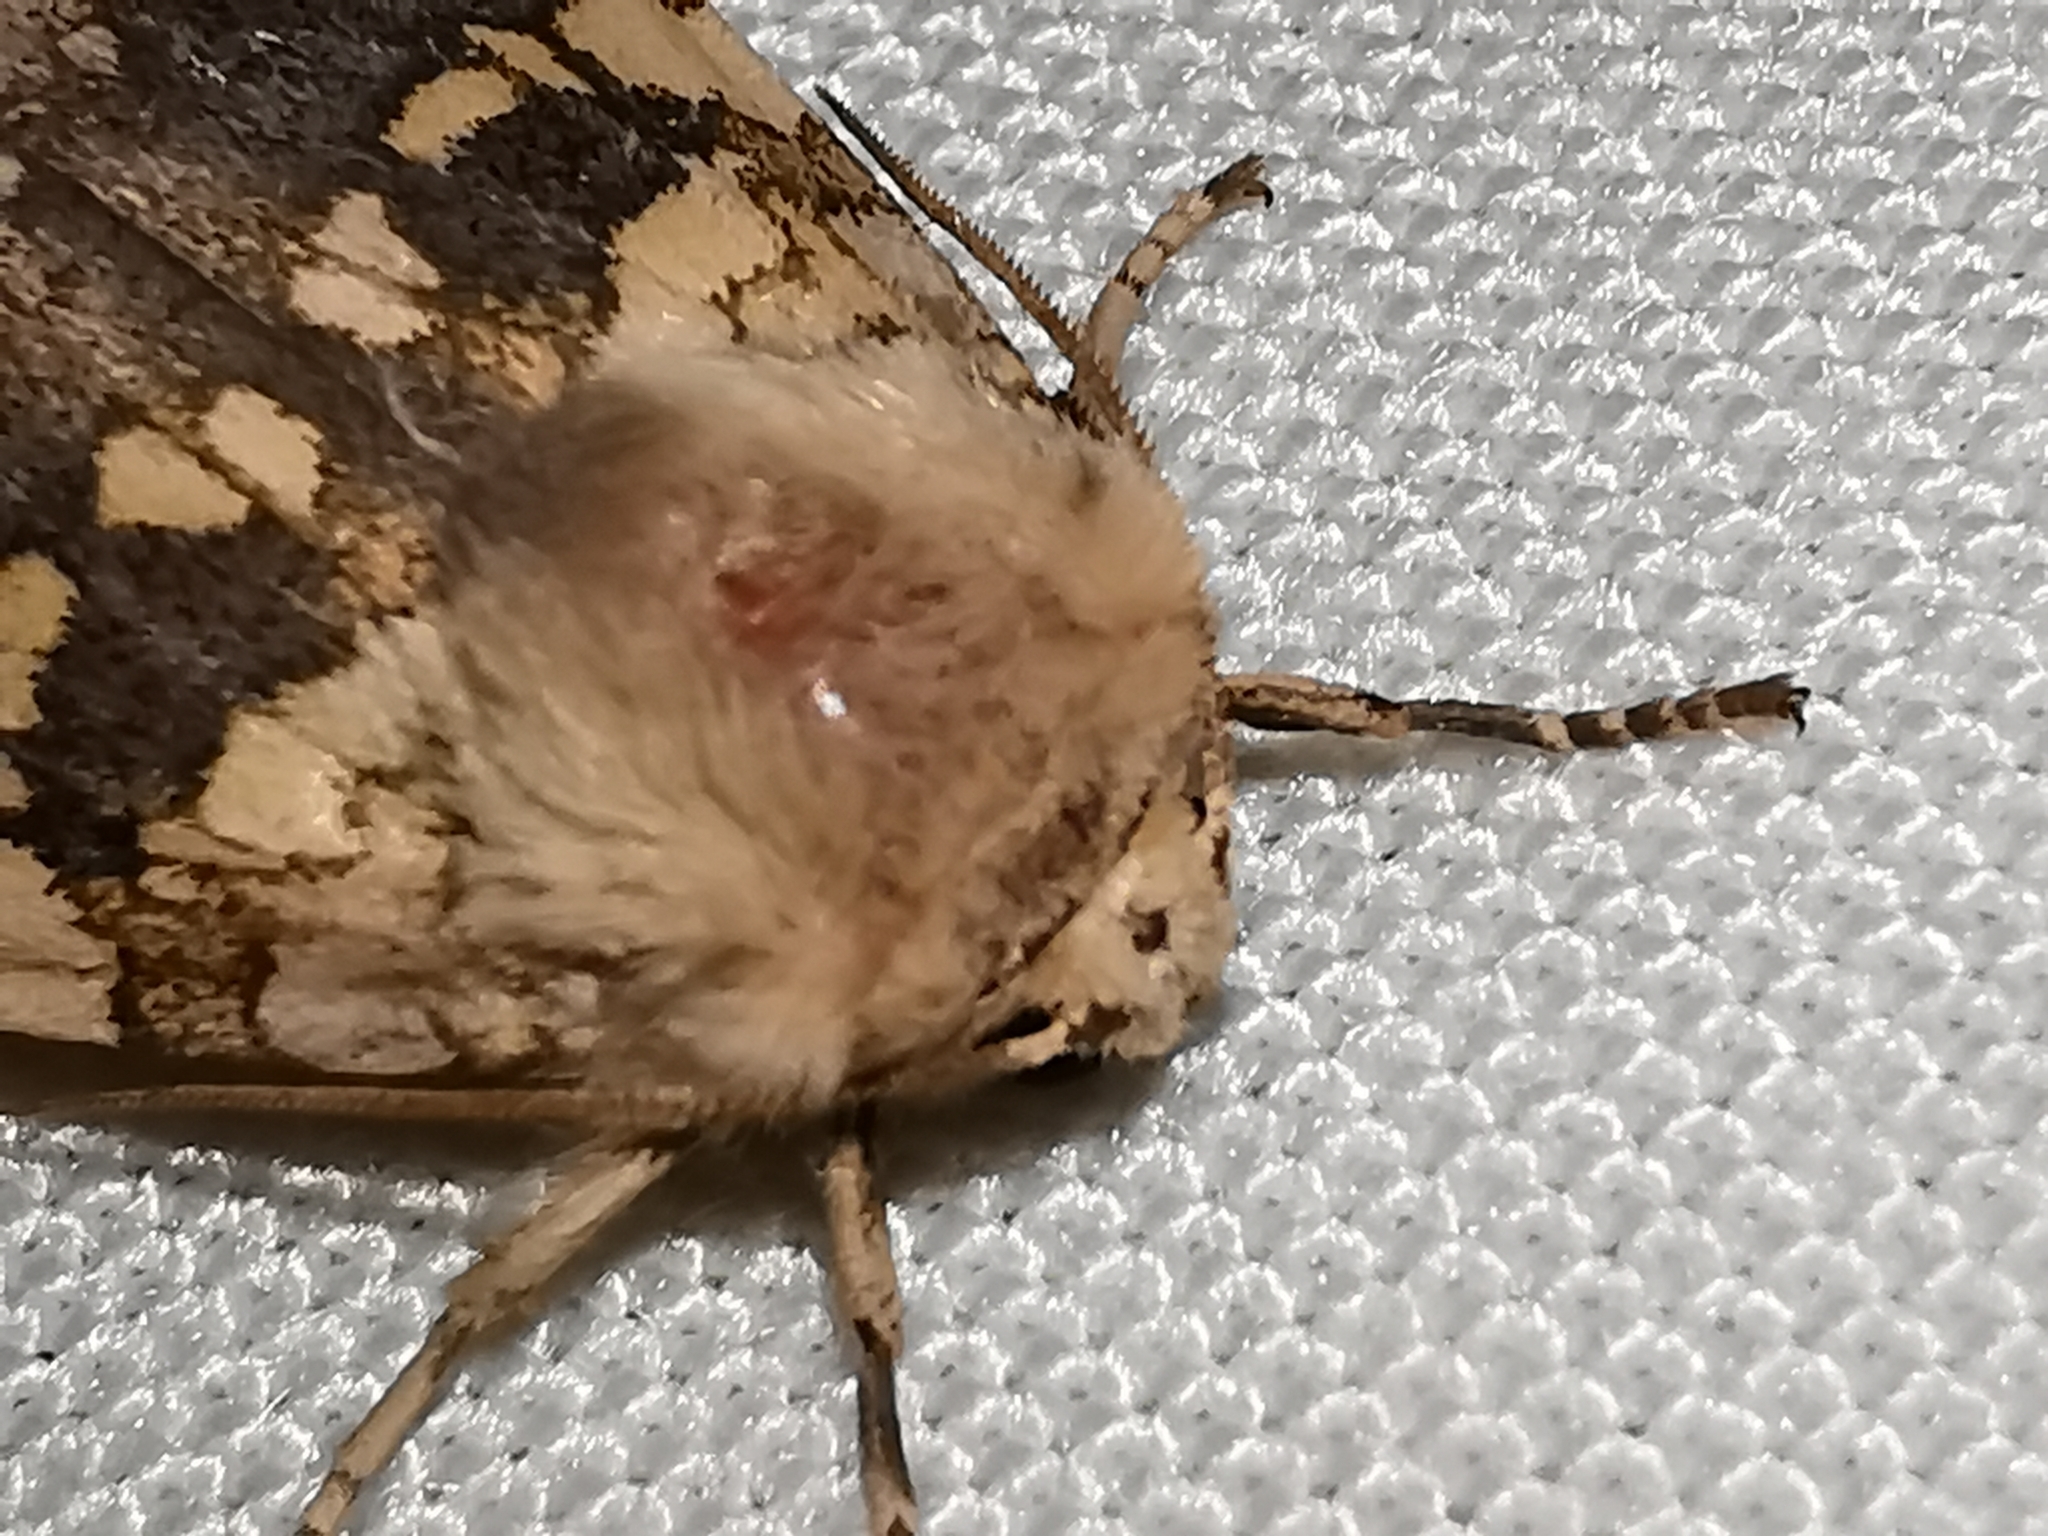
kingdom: Animalia
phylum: Arthropoda
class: Insecta
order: Lepidoptera
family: Erebidae
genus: Hypocrisias
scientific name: Hypocrisias minima
